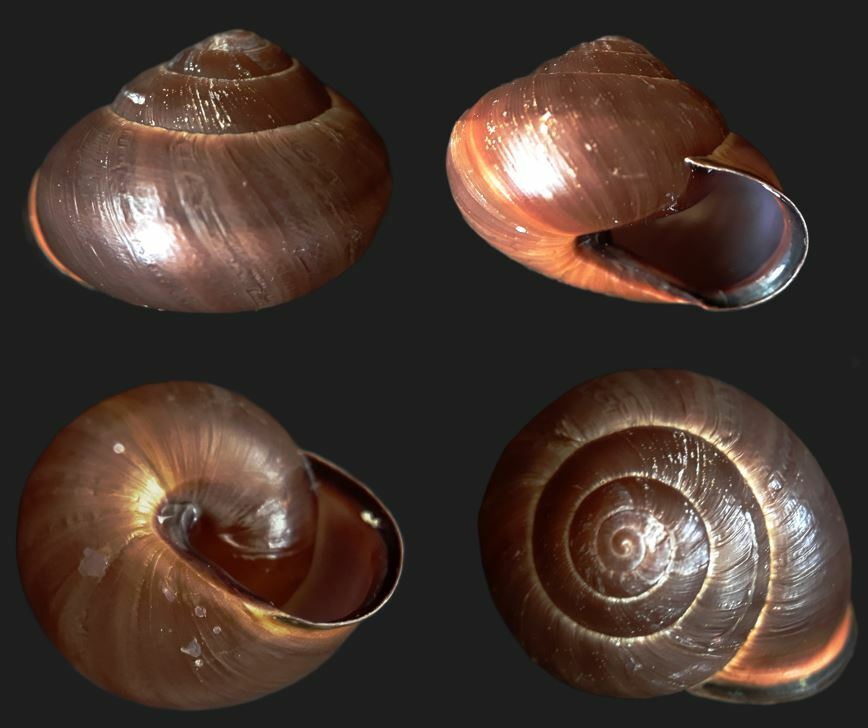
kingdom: Animalia
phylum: Mollusca
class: Gastropoda
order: Stylommatophora
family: Helicidae
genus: Cepaea
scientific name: Cepaea nemoralis
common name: Grovesnail
